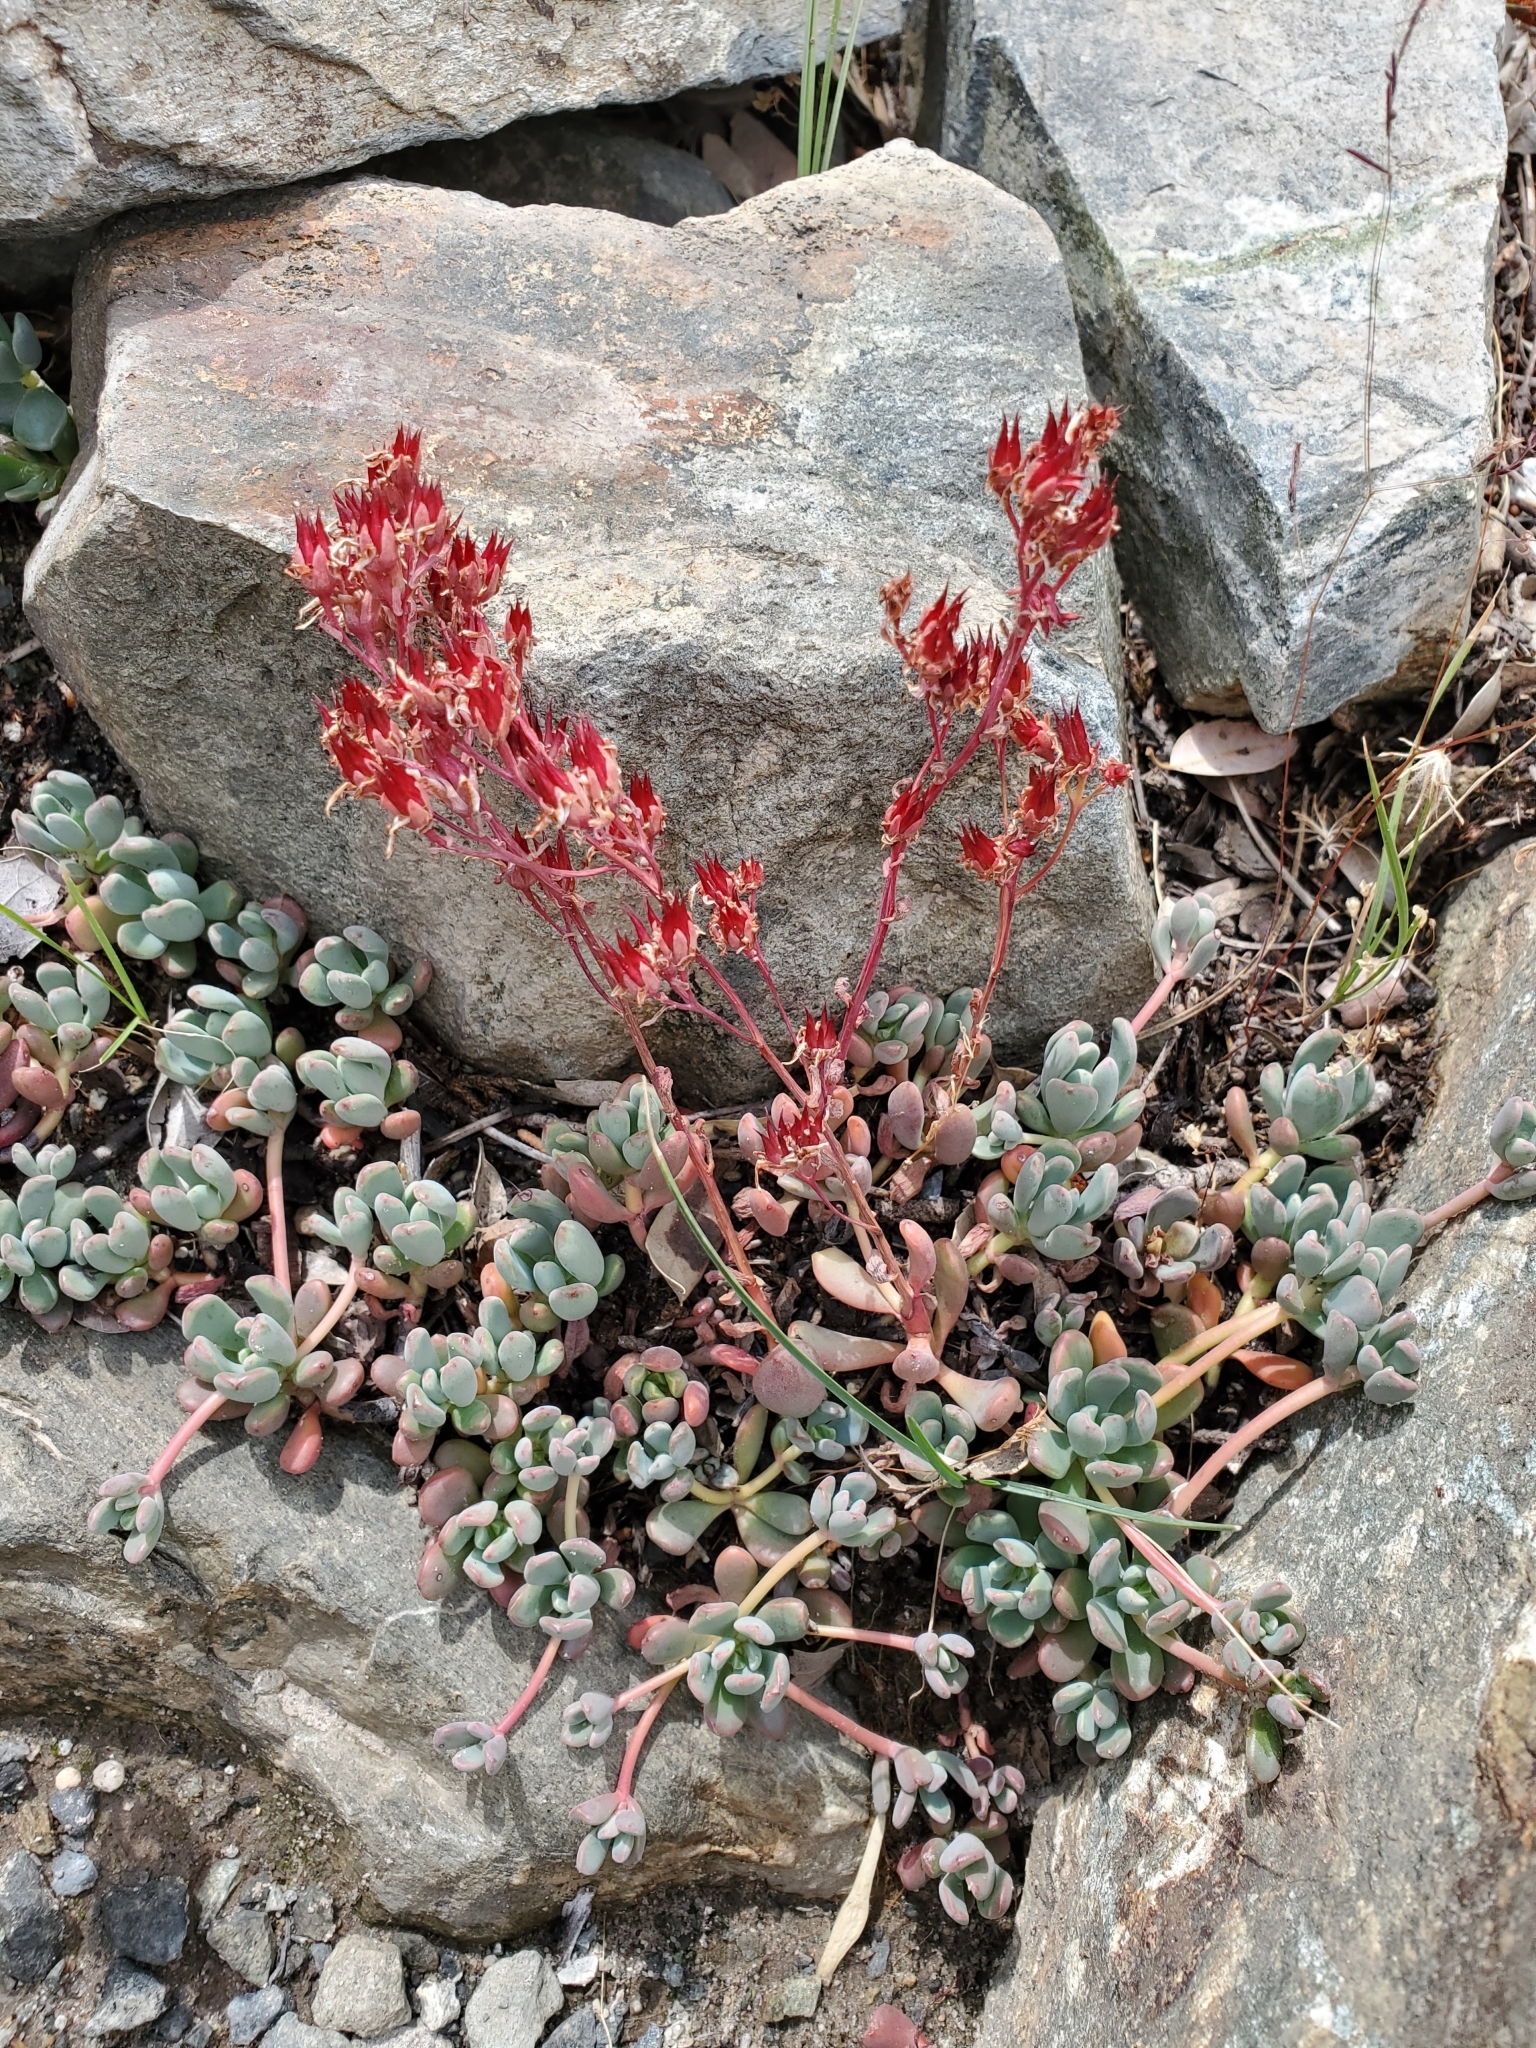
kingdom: Plantae
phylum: Tracheophyta
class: Magnoliopsida
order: Saxifragales
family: Crassulaceae
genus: Sedum
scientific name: Sedum obtusatum
